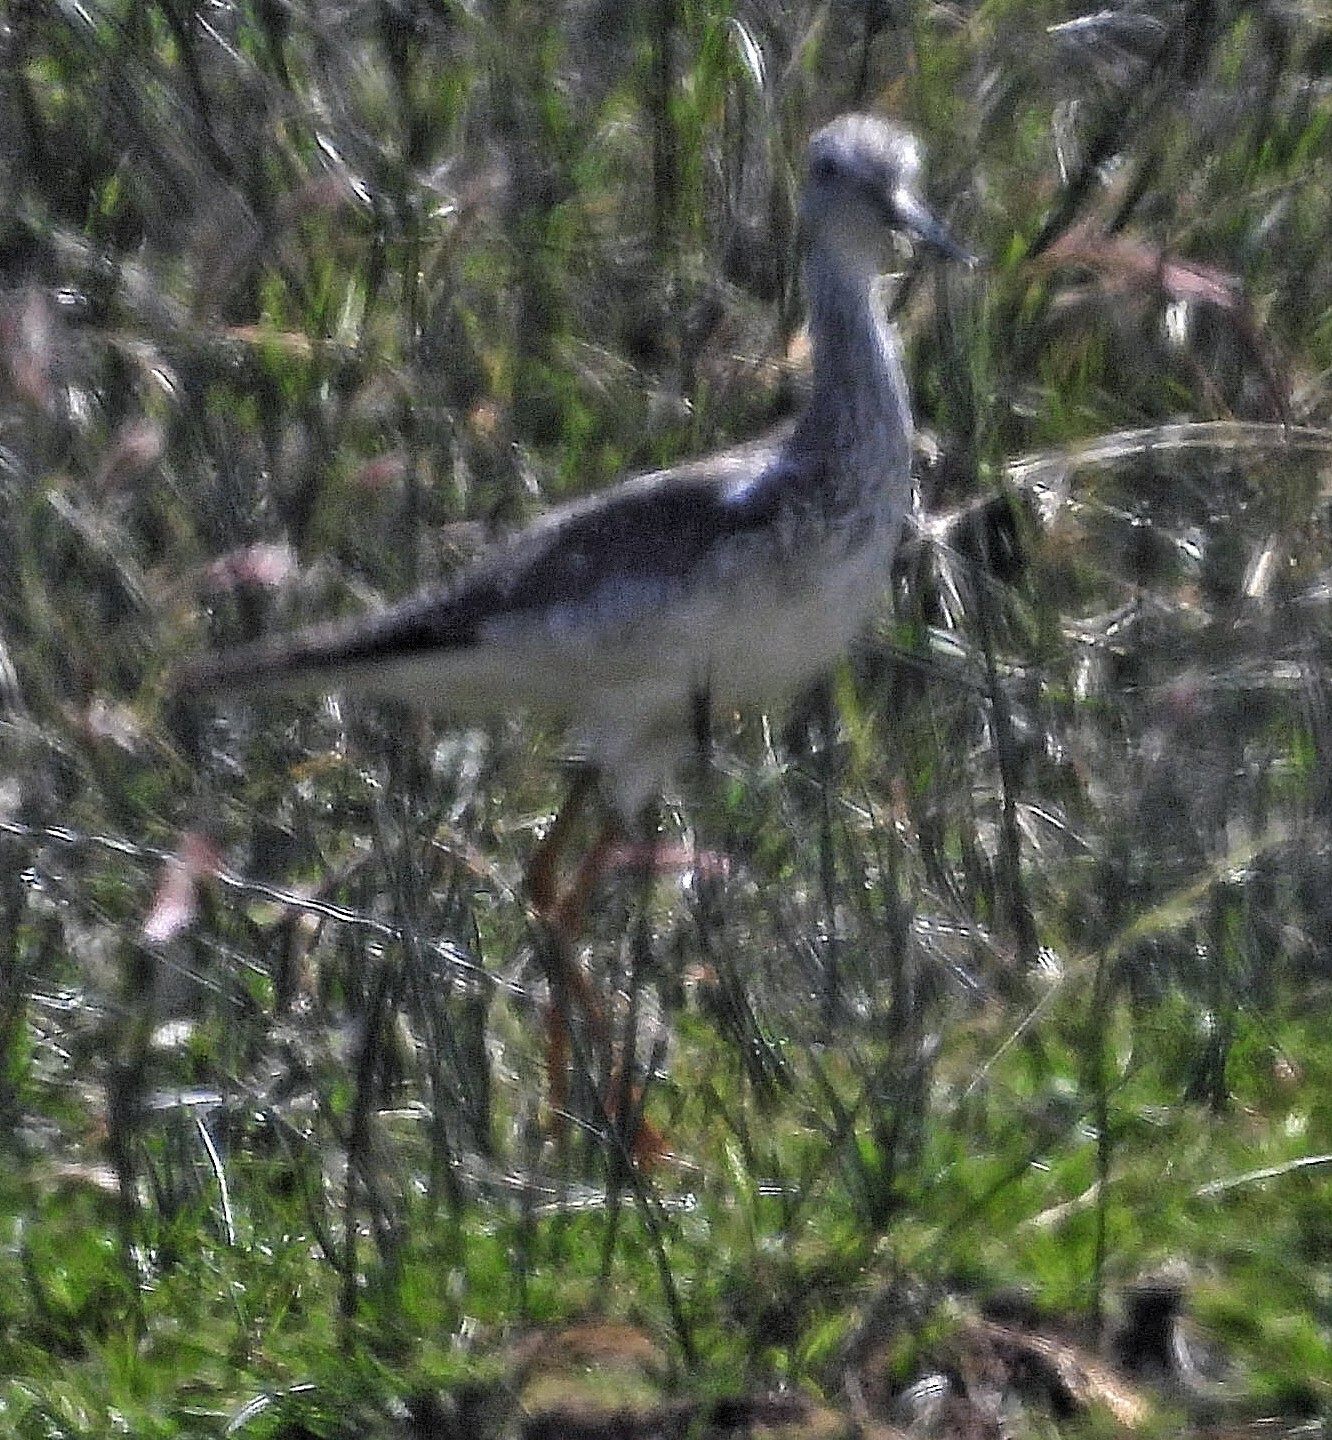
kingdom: Animalia
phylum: Chordata
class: Aves
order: Charadriiformes
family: Scolopacidae
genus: Tringa
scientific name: Tringa melanoleuca
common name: Greater yellowlegs
